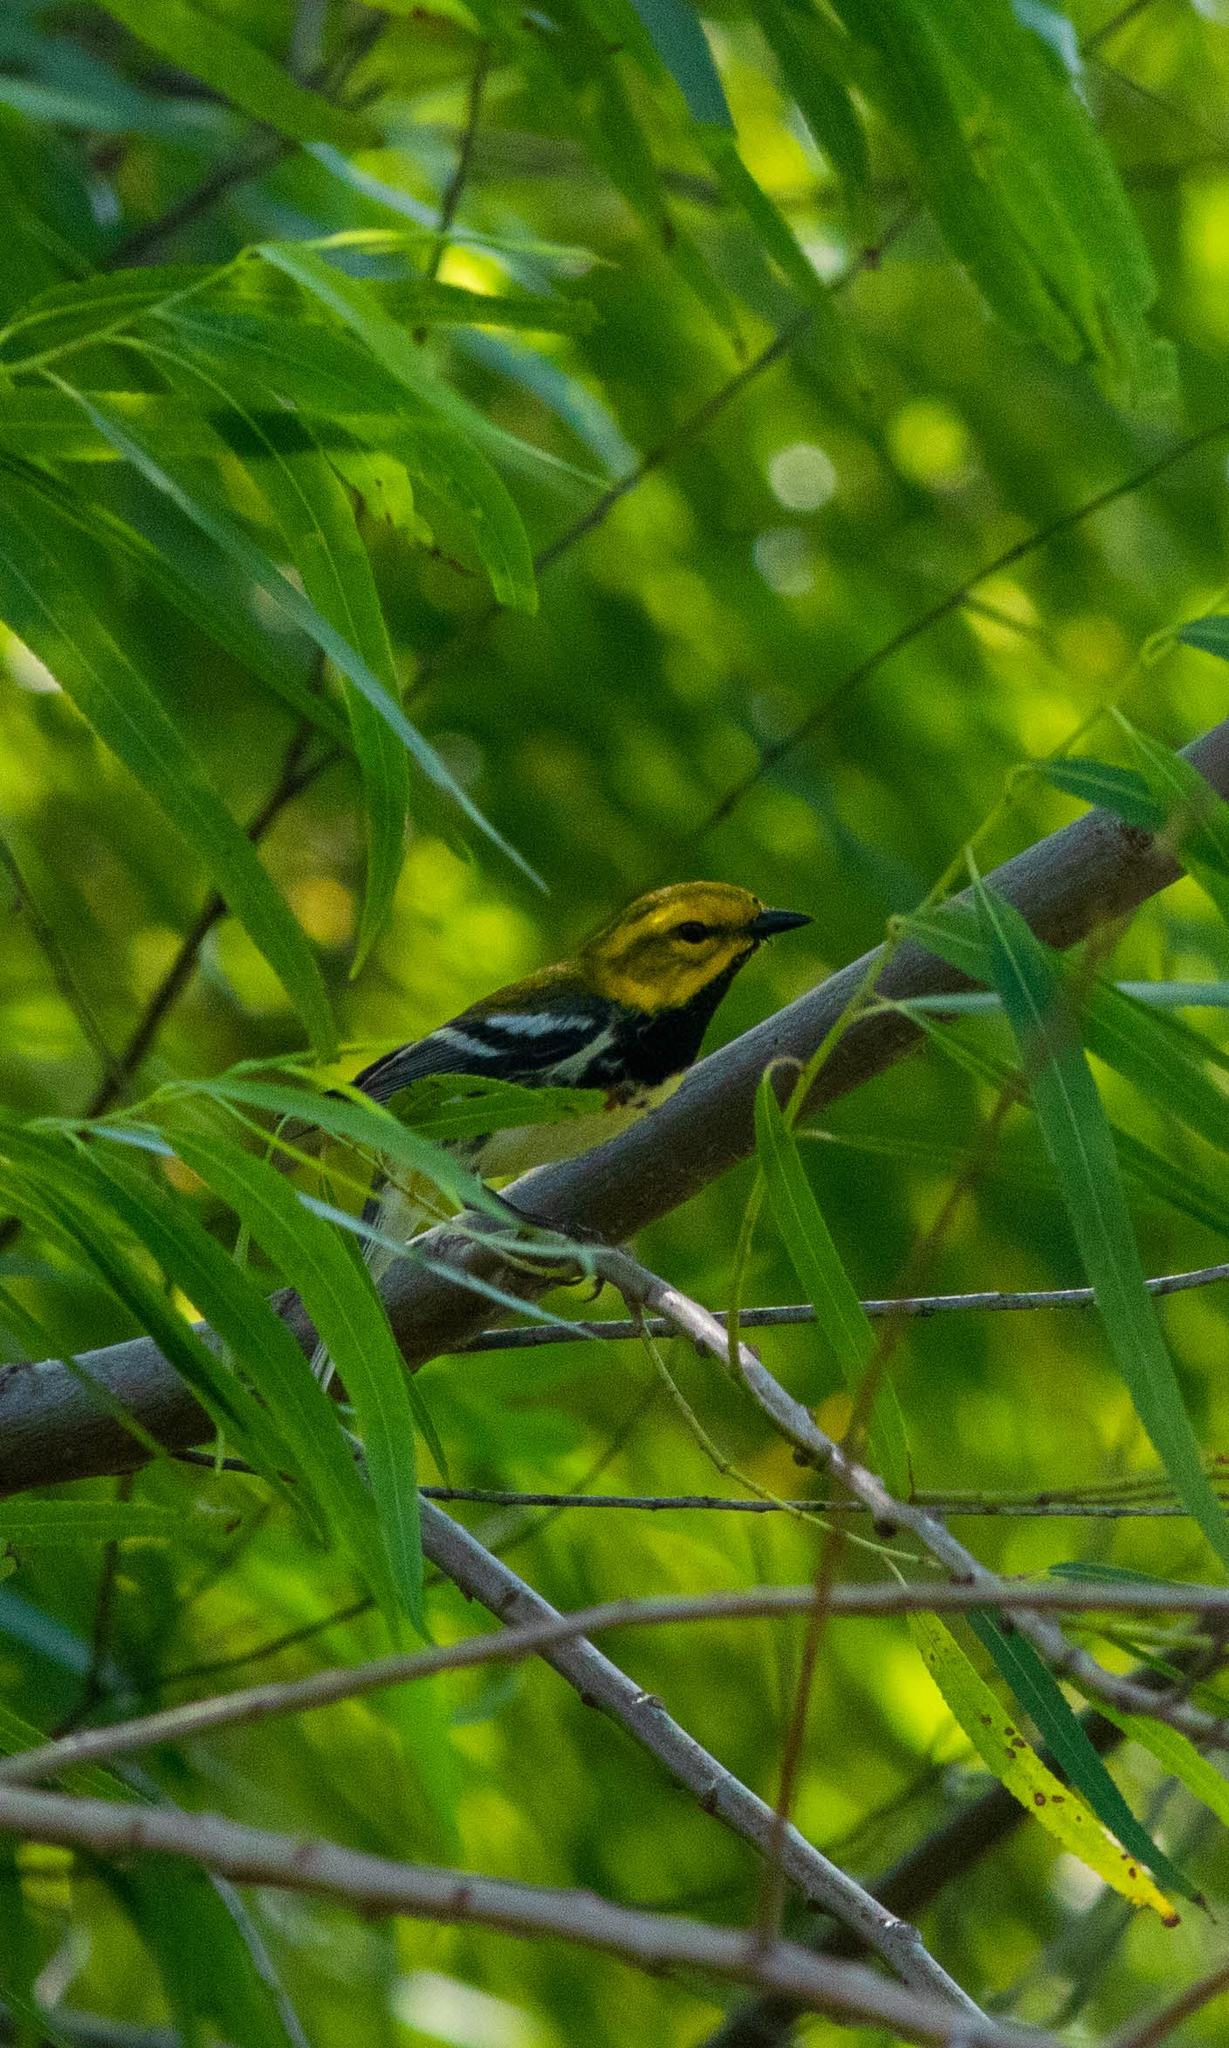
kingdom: Animalia
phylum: Chordata
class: Aves
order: Passeriformes
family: Parulidae
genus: Setophaga
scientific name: Setophaga virens
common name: Black-throated green warbler
